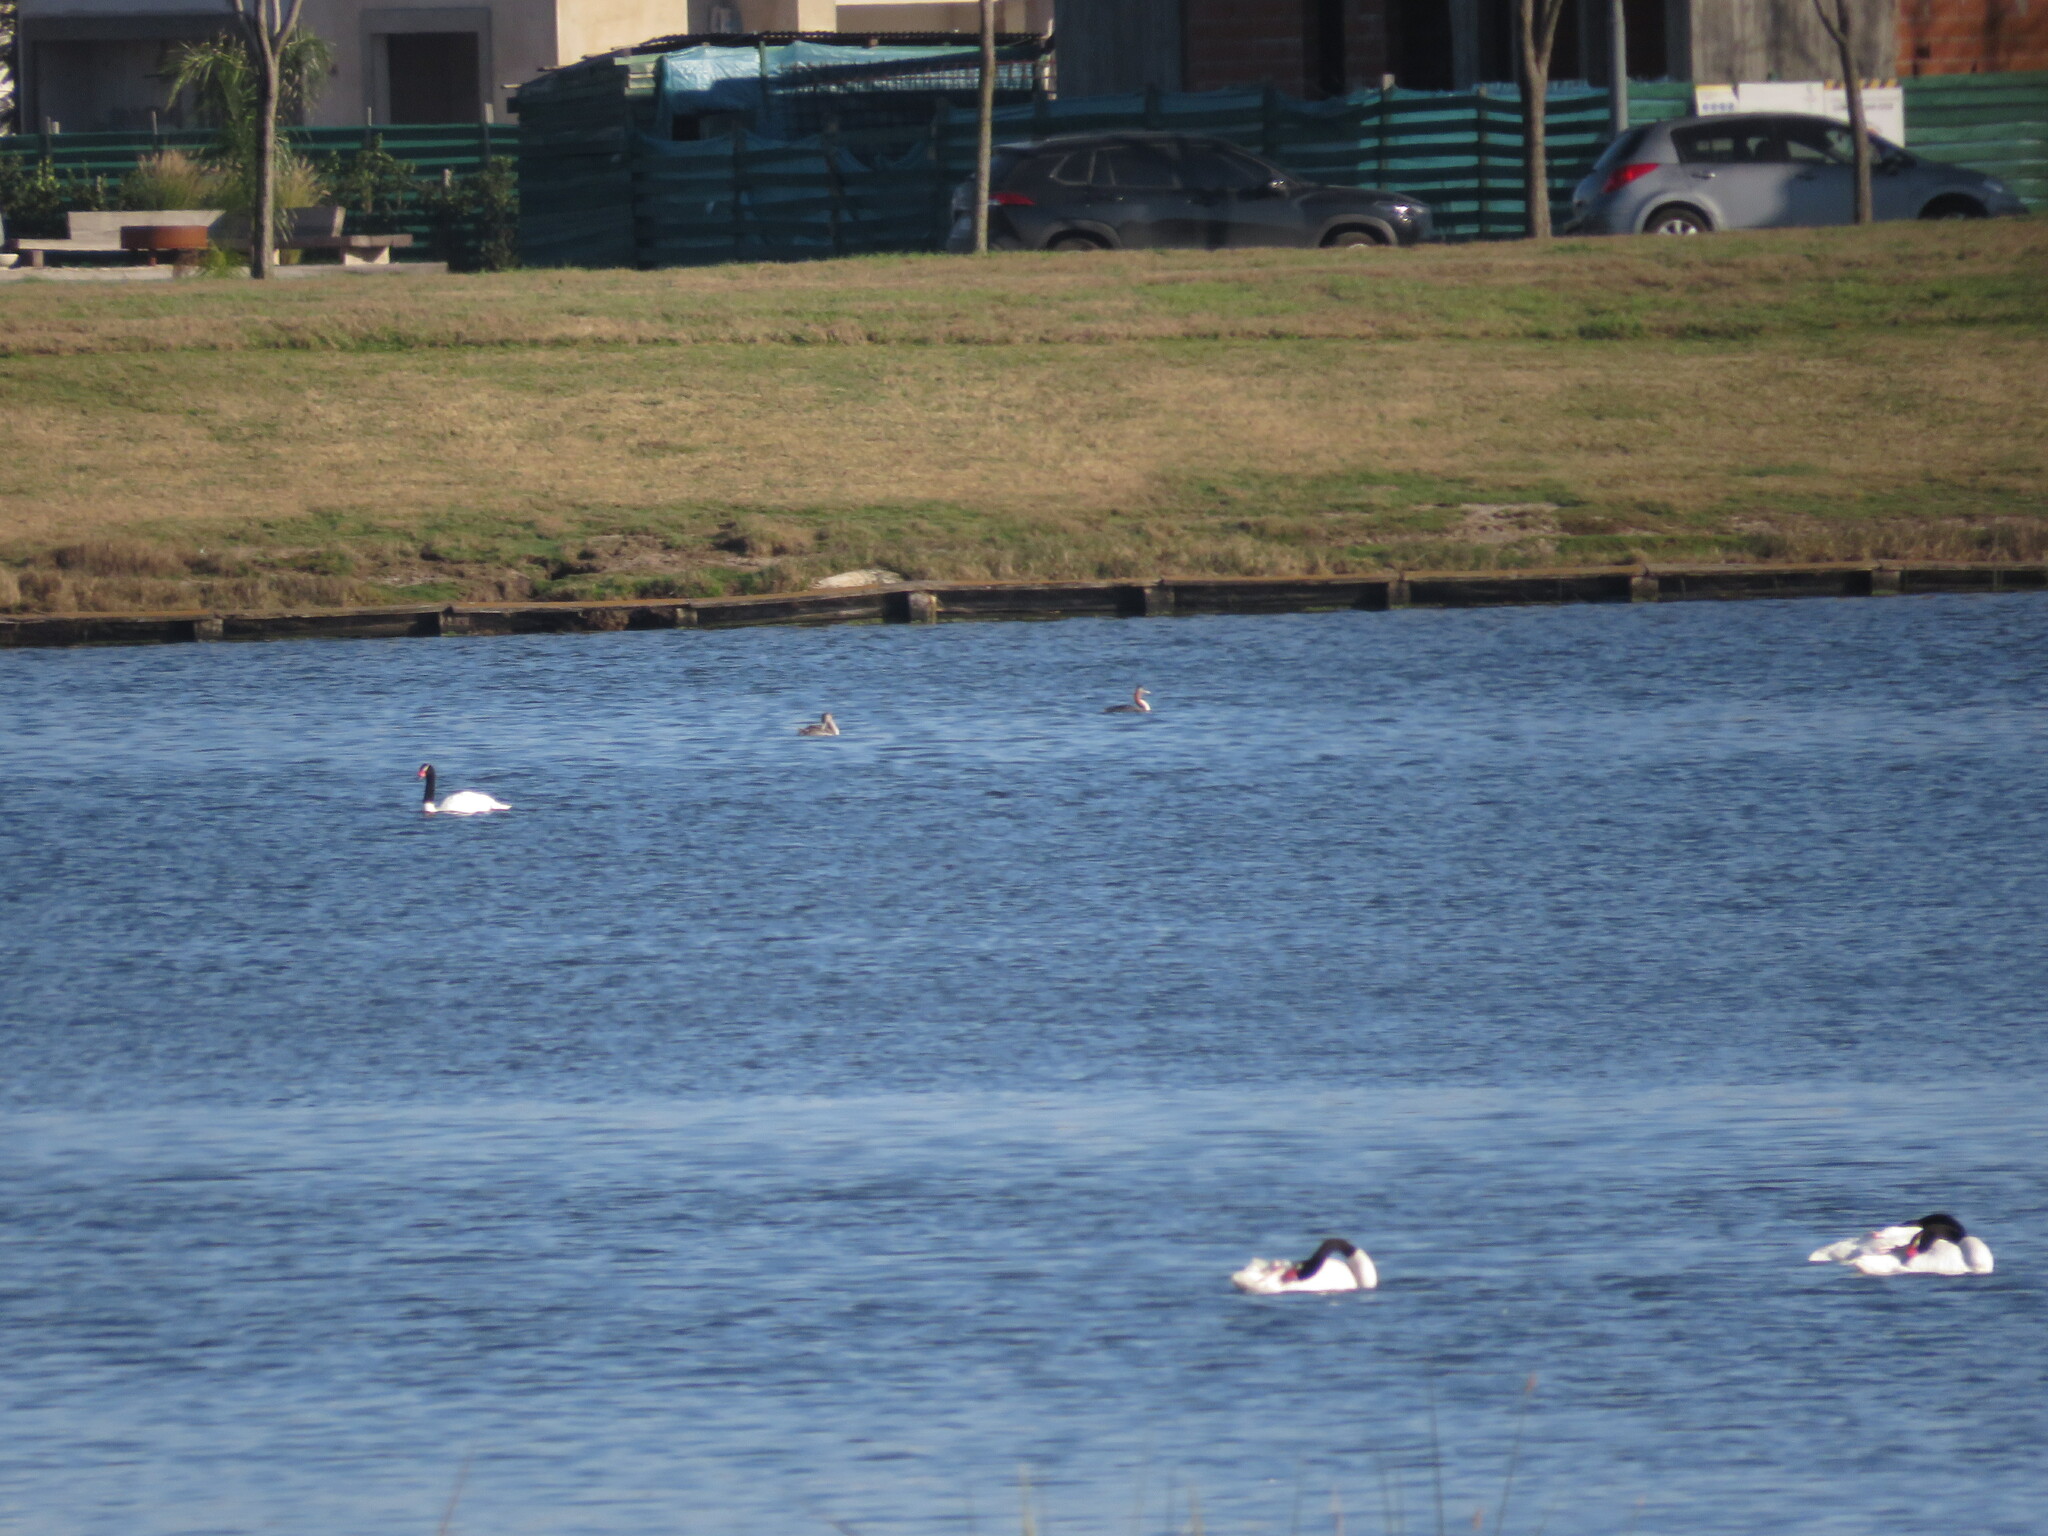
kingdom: Animalia
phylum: Chordata
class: Aves
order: Anseriformes
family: Anatidae
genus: Cygnus
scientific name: Cygnus melancoryphus
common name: Black-necked swan
